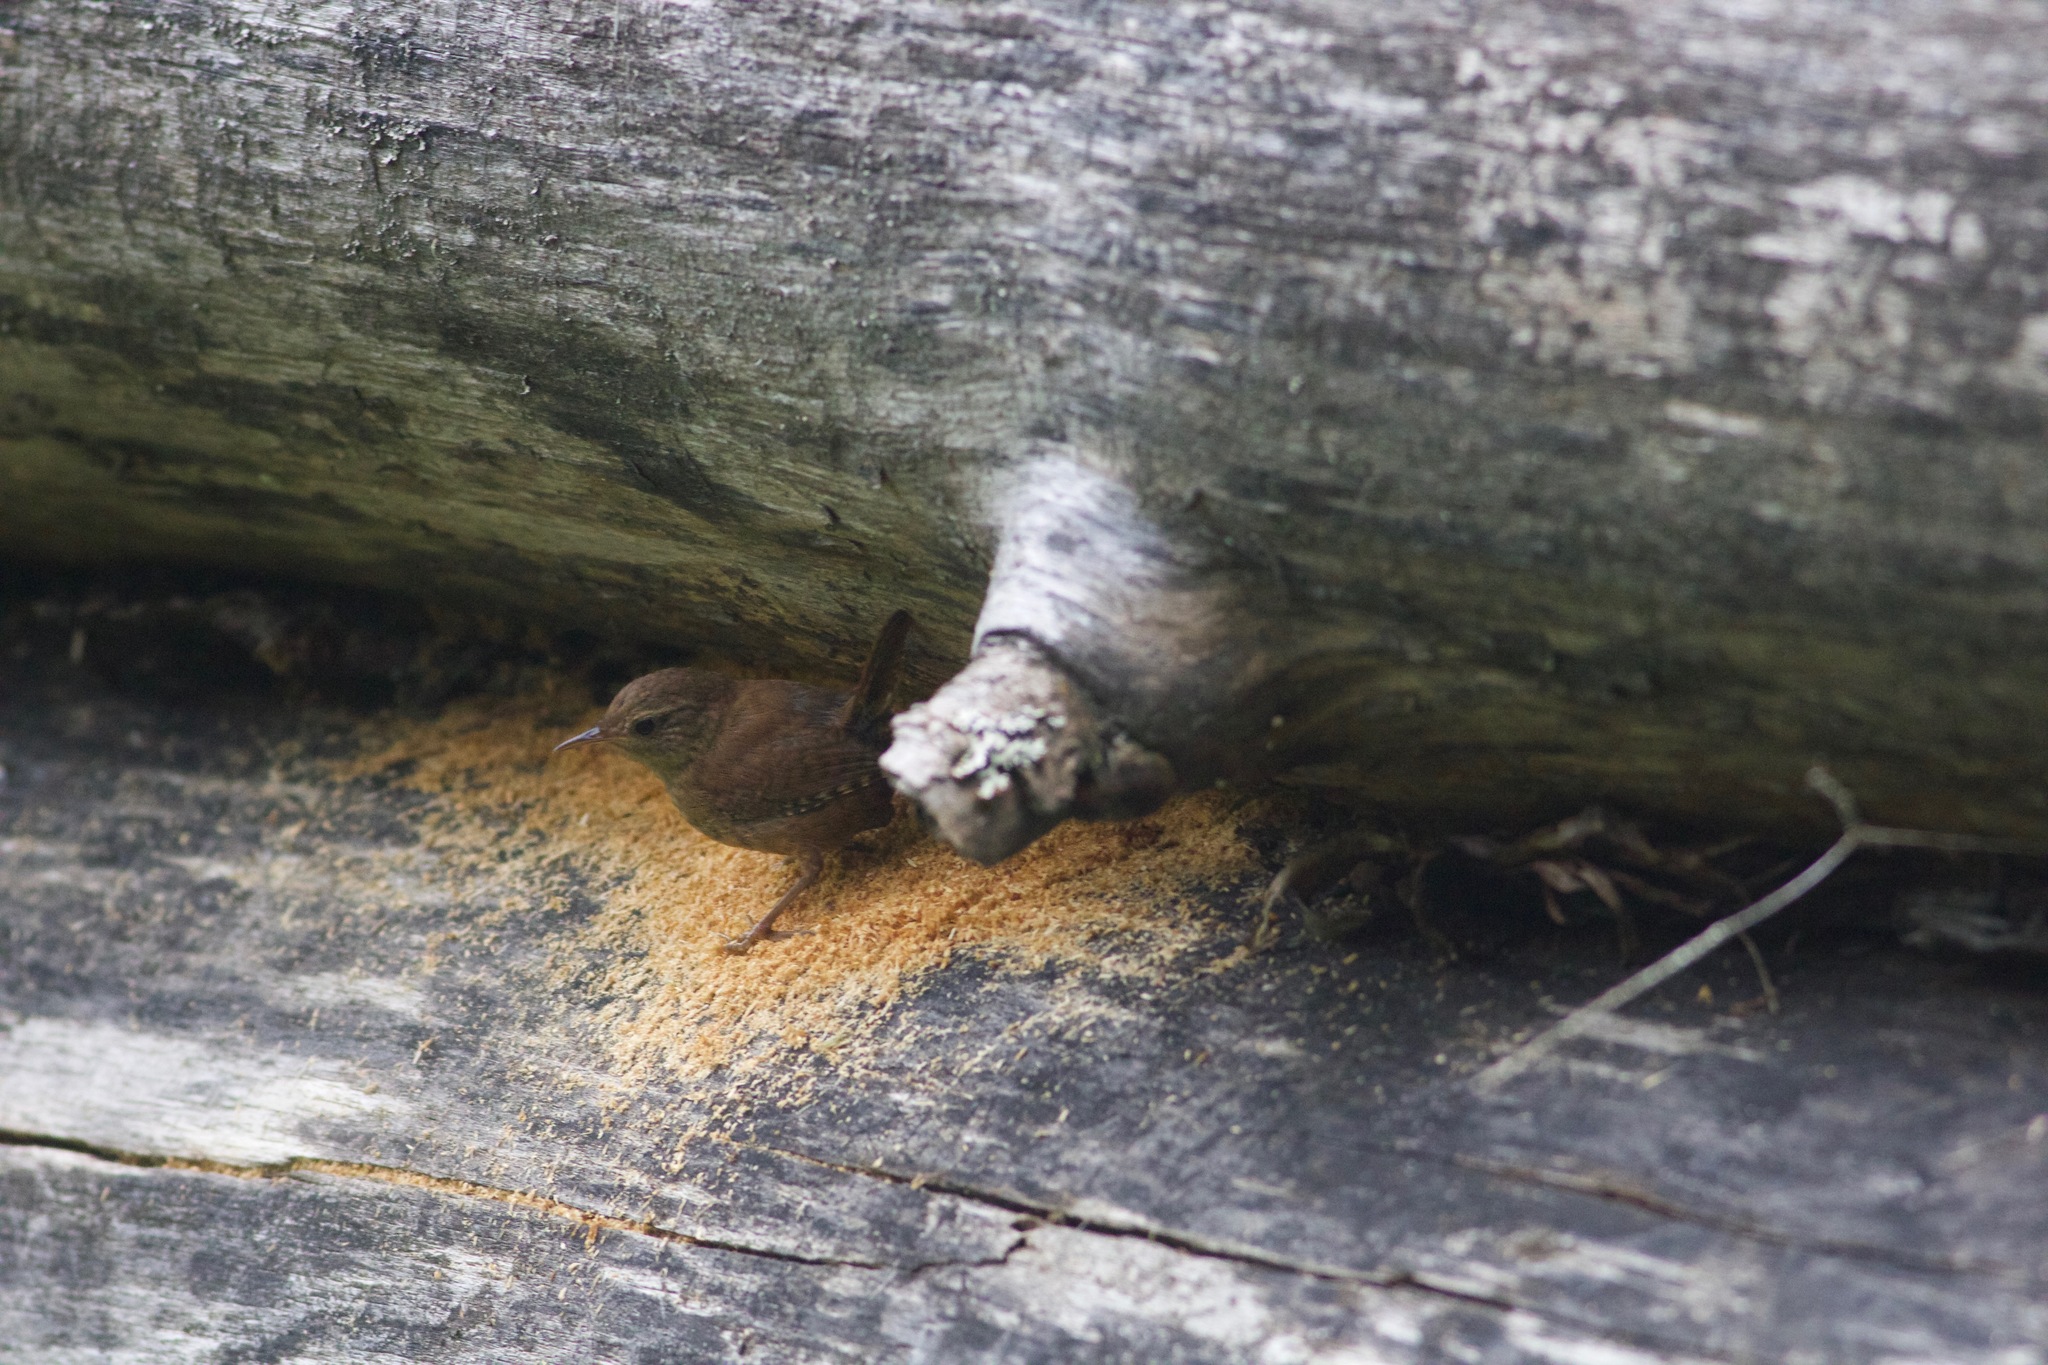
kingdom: Animalia
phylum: Chordata
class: Aves
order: Passeriformes
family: Troglodytidae
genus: Troglodytes
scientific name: Troglodytes troglodytes
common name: Eurasian wren
